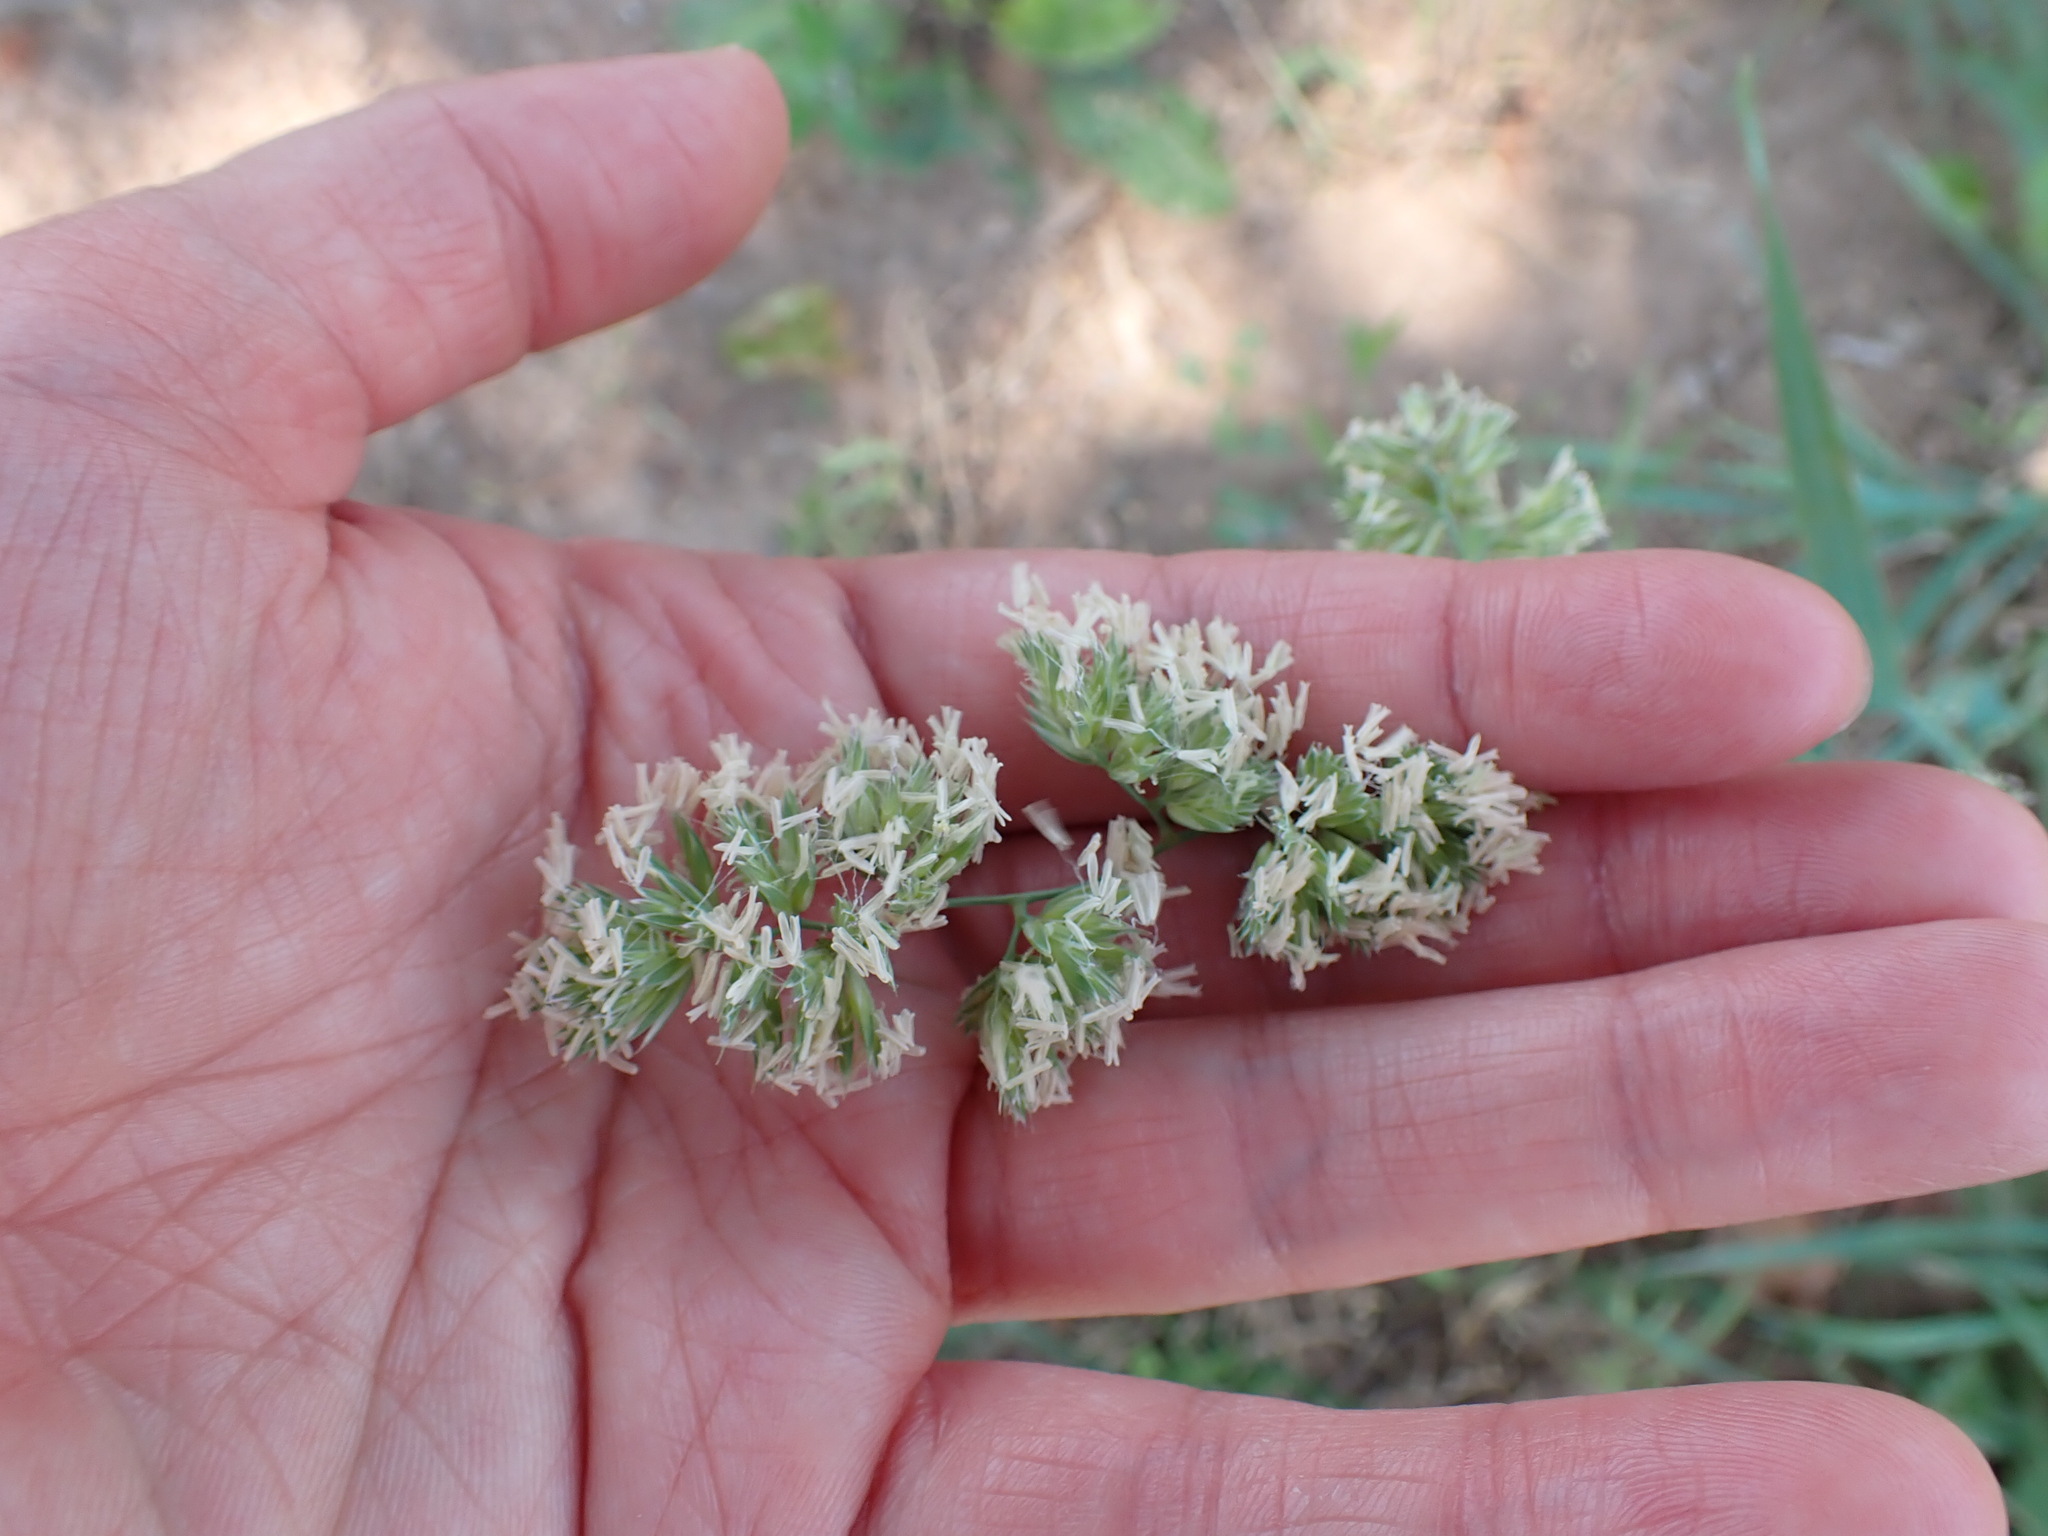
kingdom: Plantae
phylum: Tracheophyta
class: Liliopsida
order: Poales
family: Poaceae
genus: Dactylis
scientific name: Dactylis glomerata
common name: Orchardgrass
